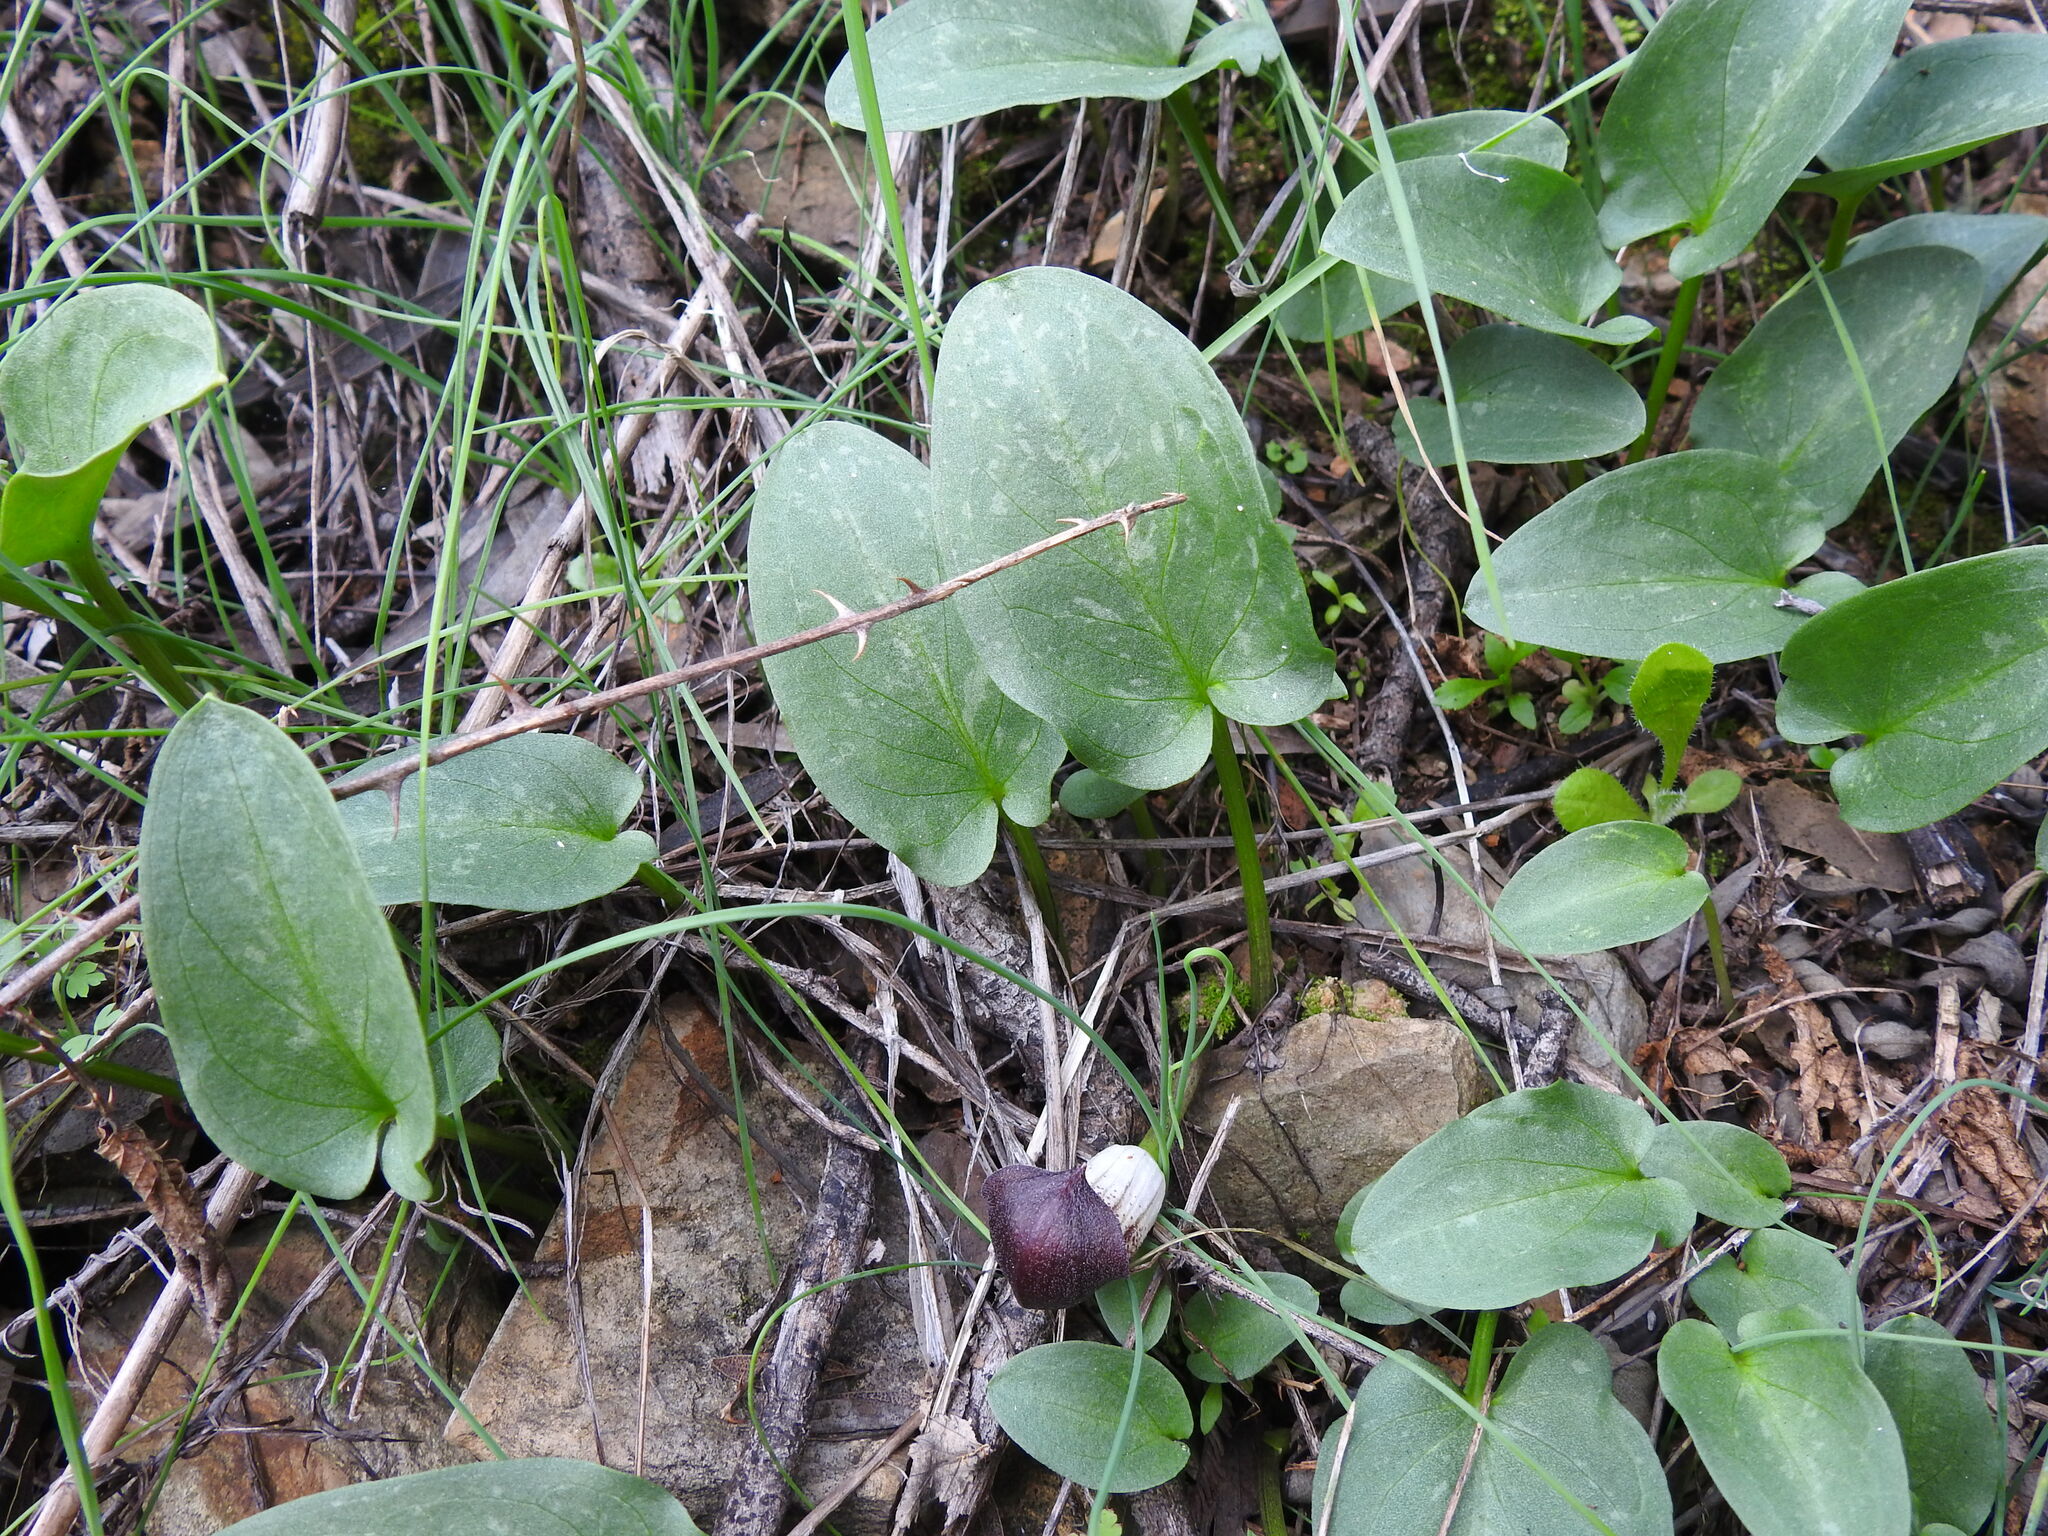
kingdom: Plantae
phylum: Tracheophyta
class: Liliopsida
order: Alismatales
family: Araceae
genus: Arisarum
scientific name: Arisarum simorrhinum
